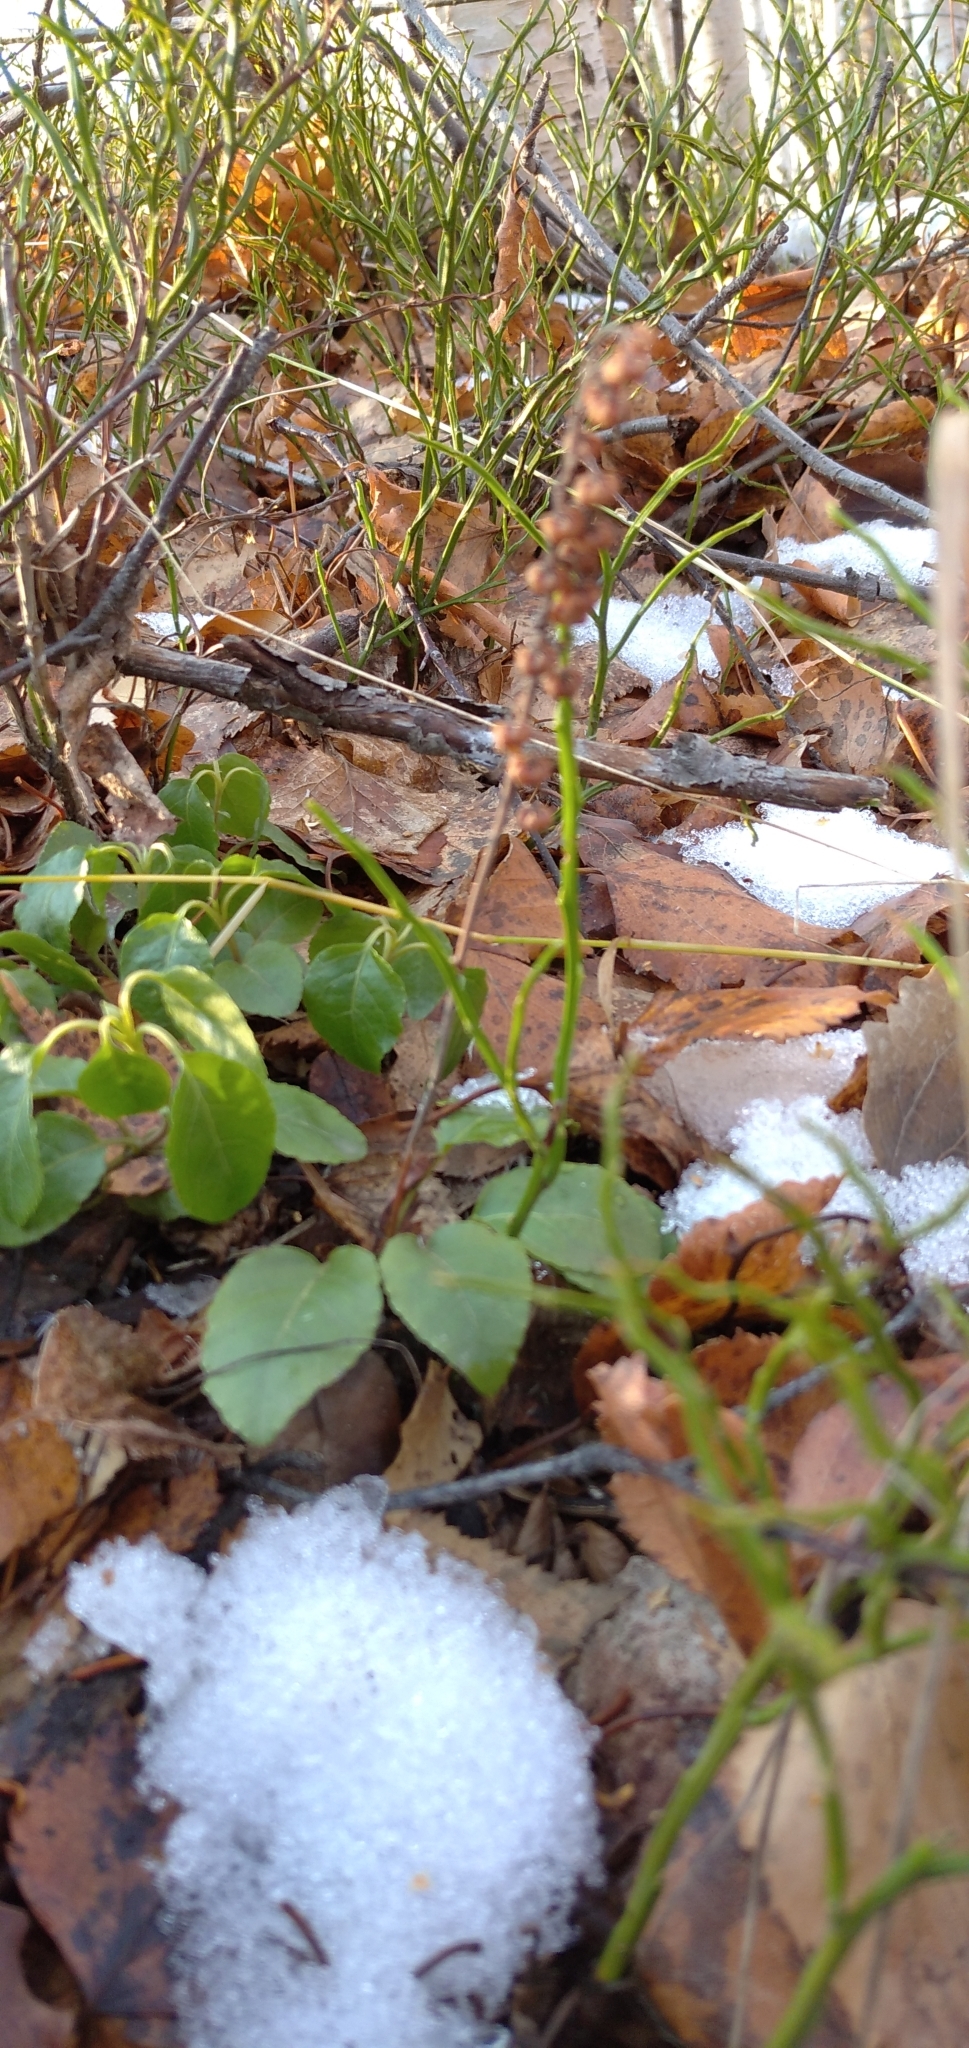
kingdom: Plantae
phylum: Tracheophyta
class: Magnoliopsida
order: Ericales
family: Ericaceae
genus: Orthilia
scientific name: Orthilia secunda
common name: One-sided orthilia
